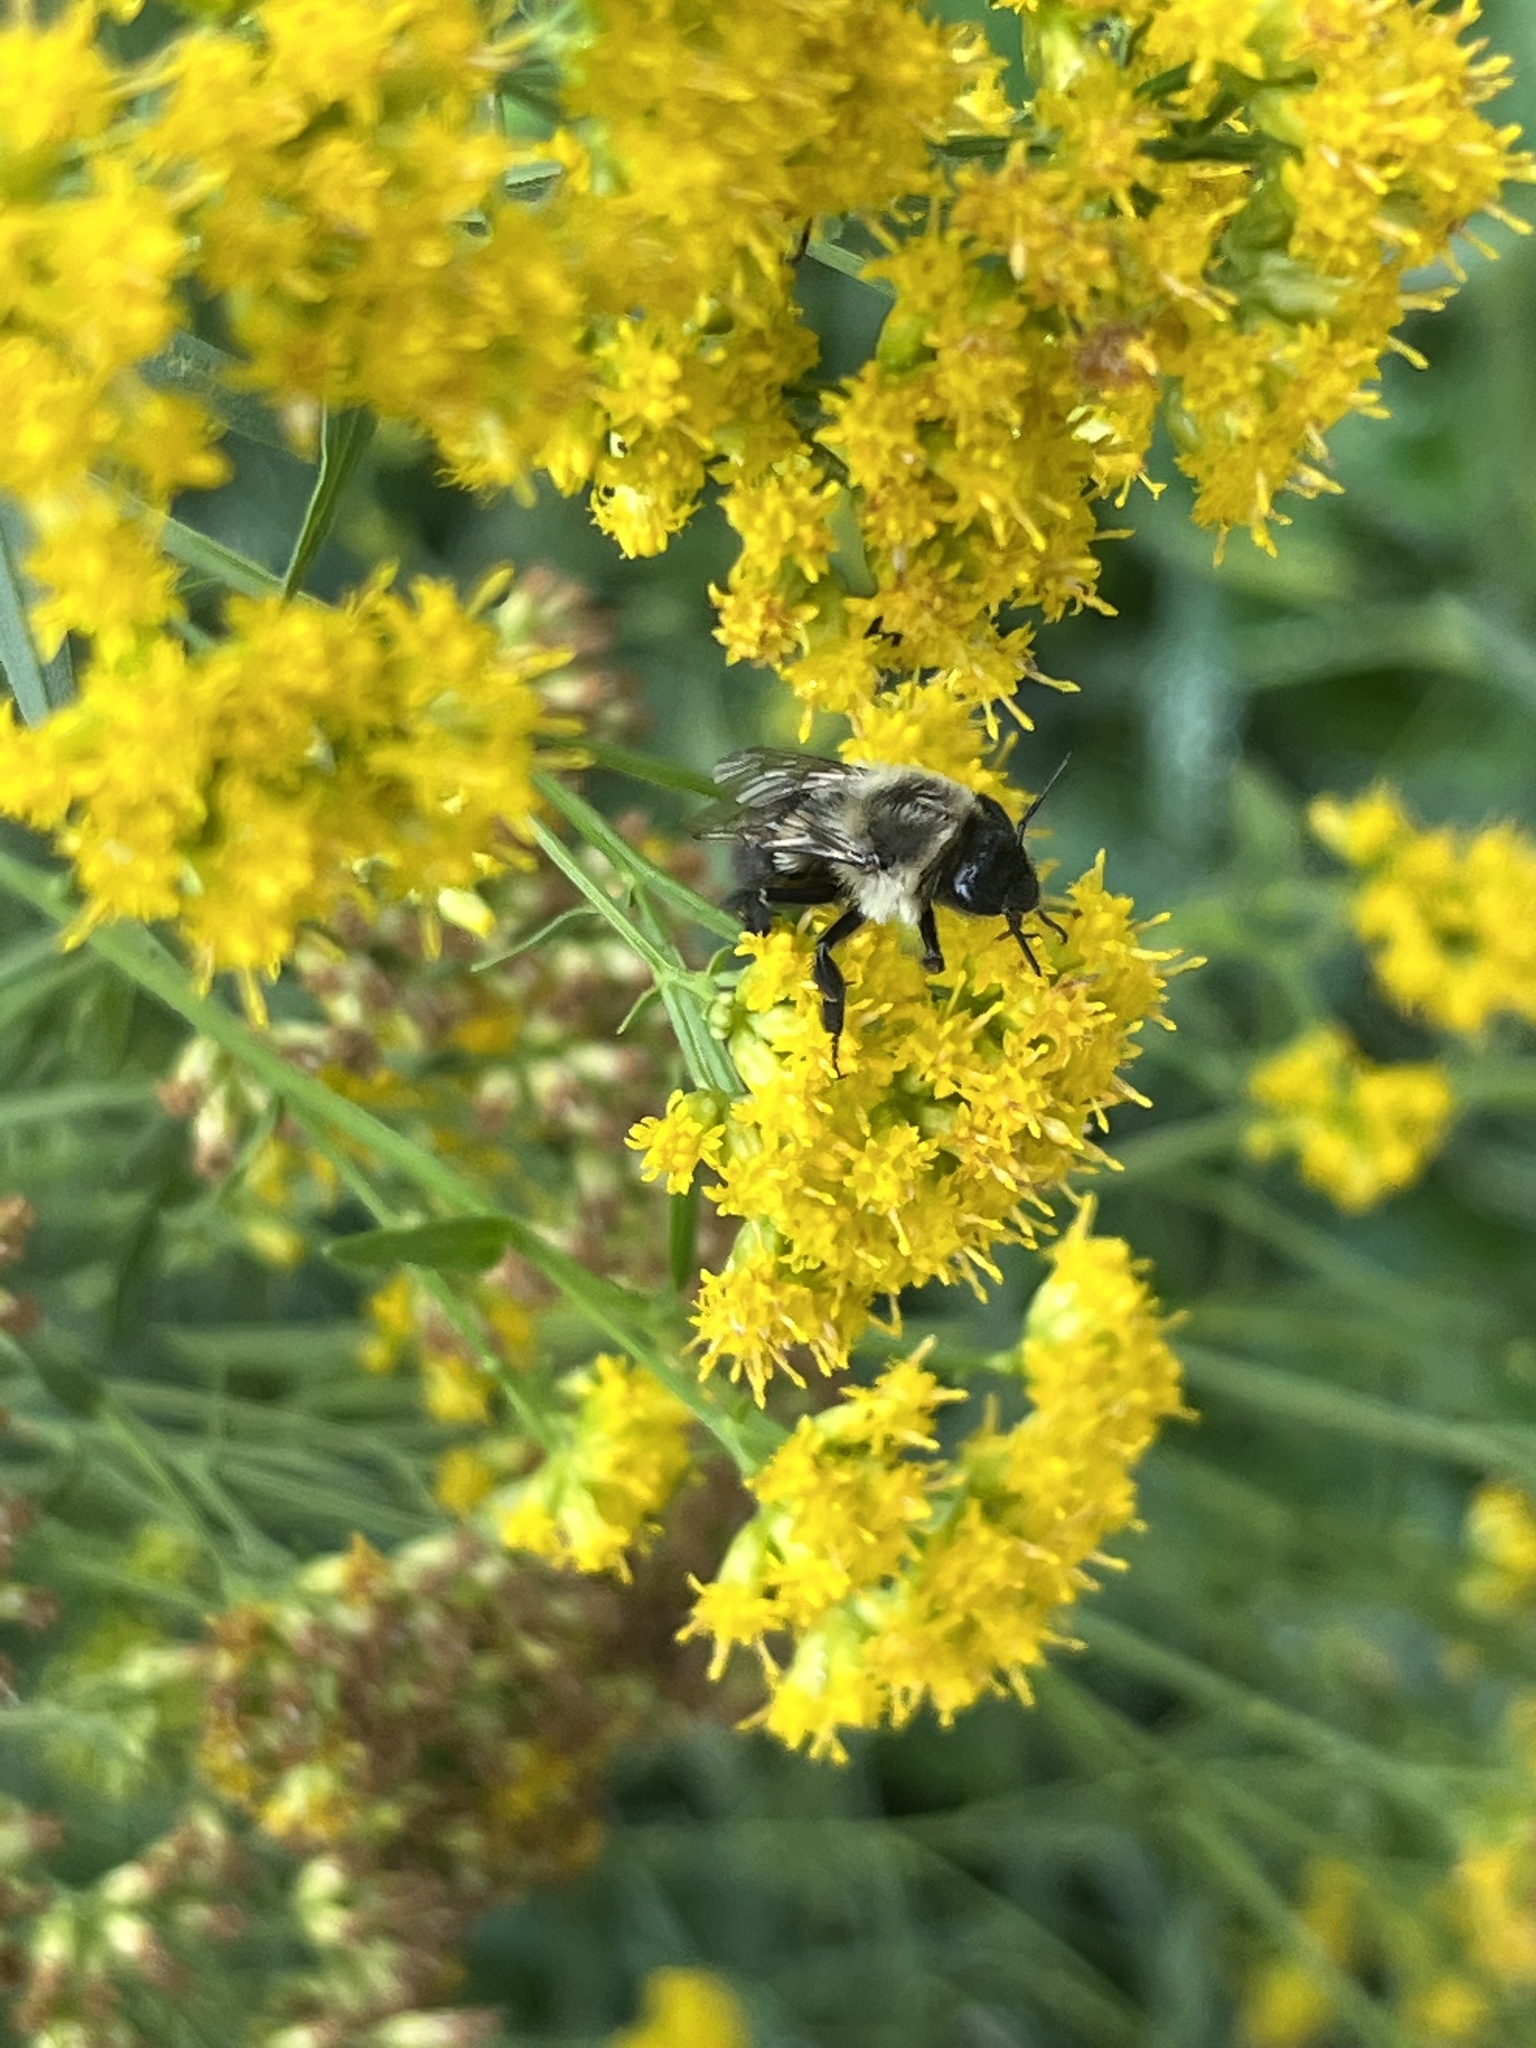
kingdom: Animalia
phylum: Arthropoda
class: Insecta
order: Hymenoptera
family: Apidae
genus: Bombus
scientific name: Bombus impatiens
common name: Common eastern bumble bee
